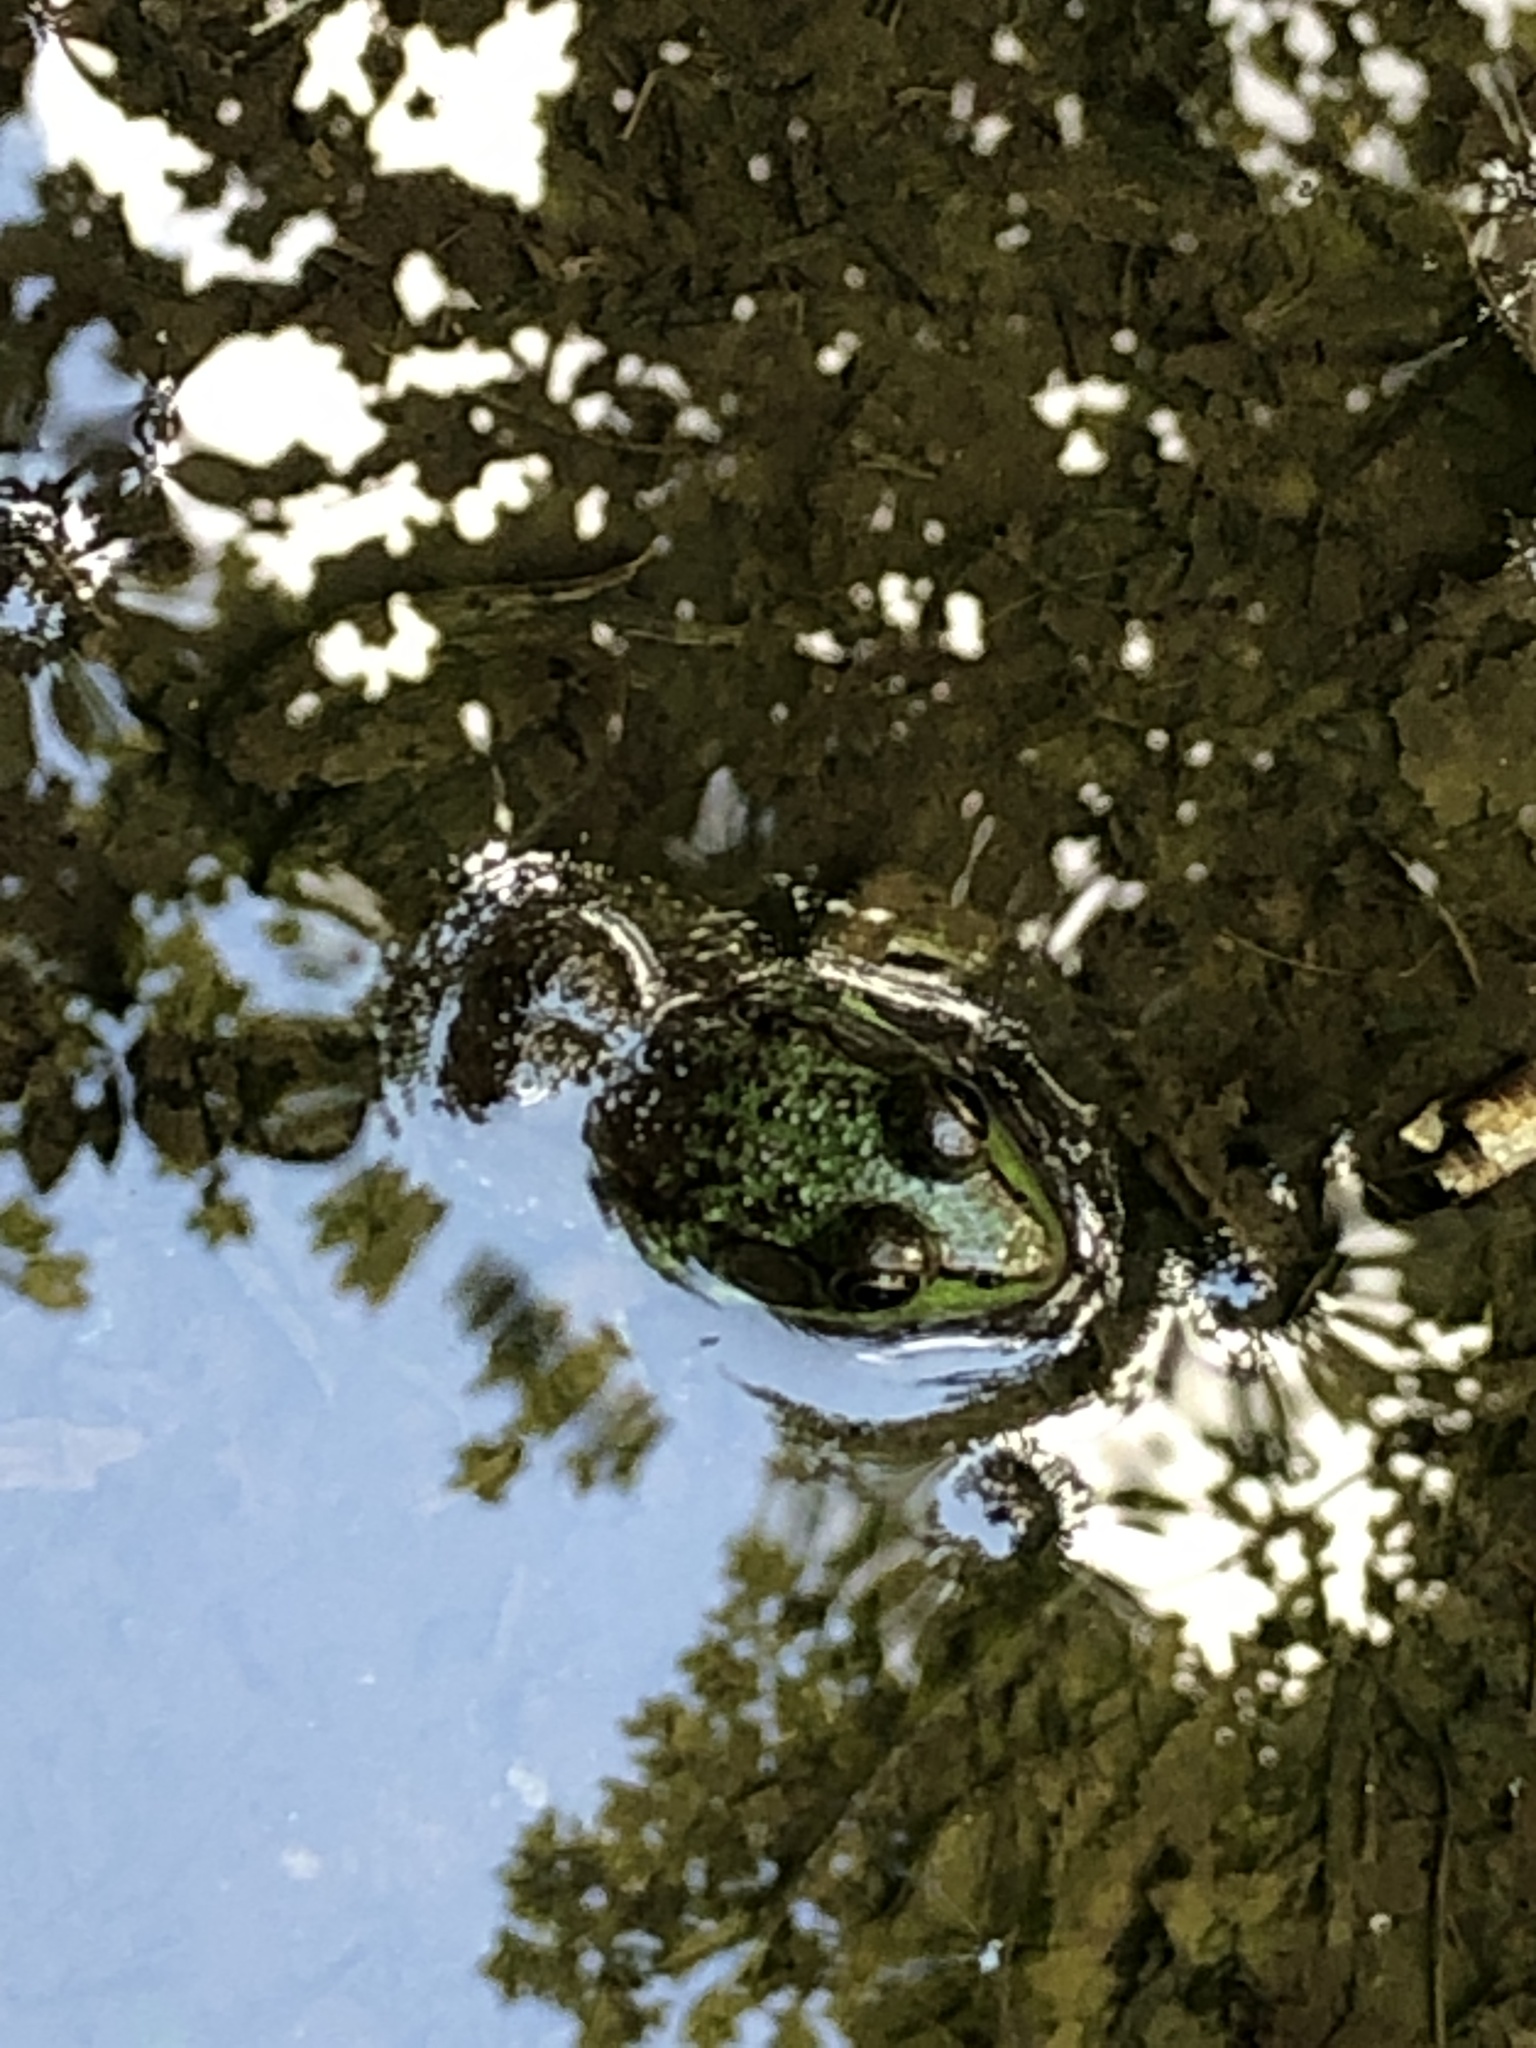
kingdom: Animalia
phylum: Chordata
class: Amphibia
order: Anura
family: Ranidae
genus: Lithobates
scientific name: Lithobates clamitans
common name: Green frog
